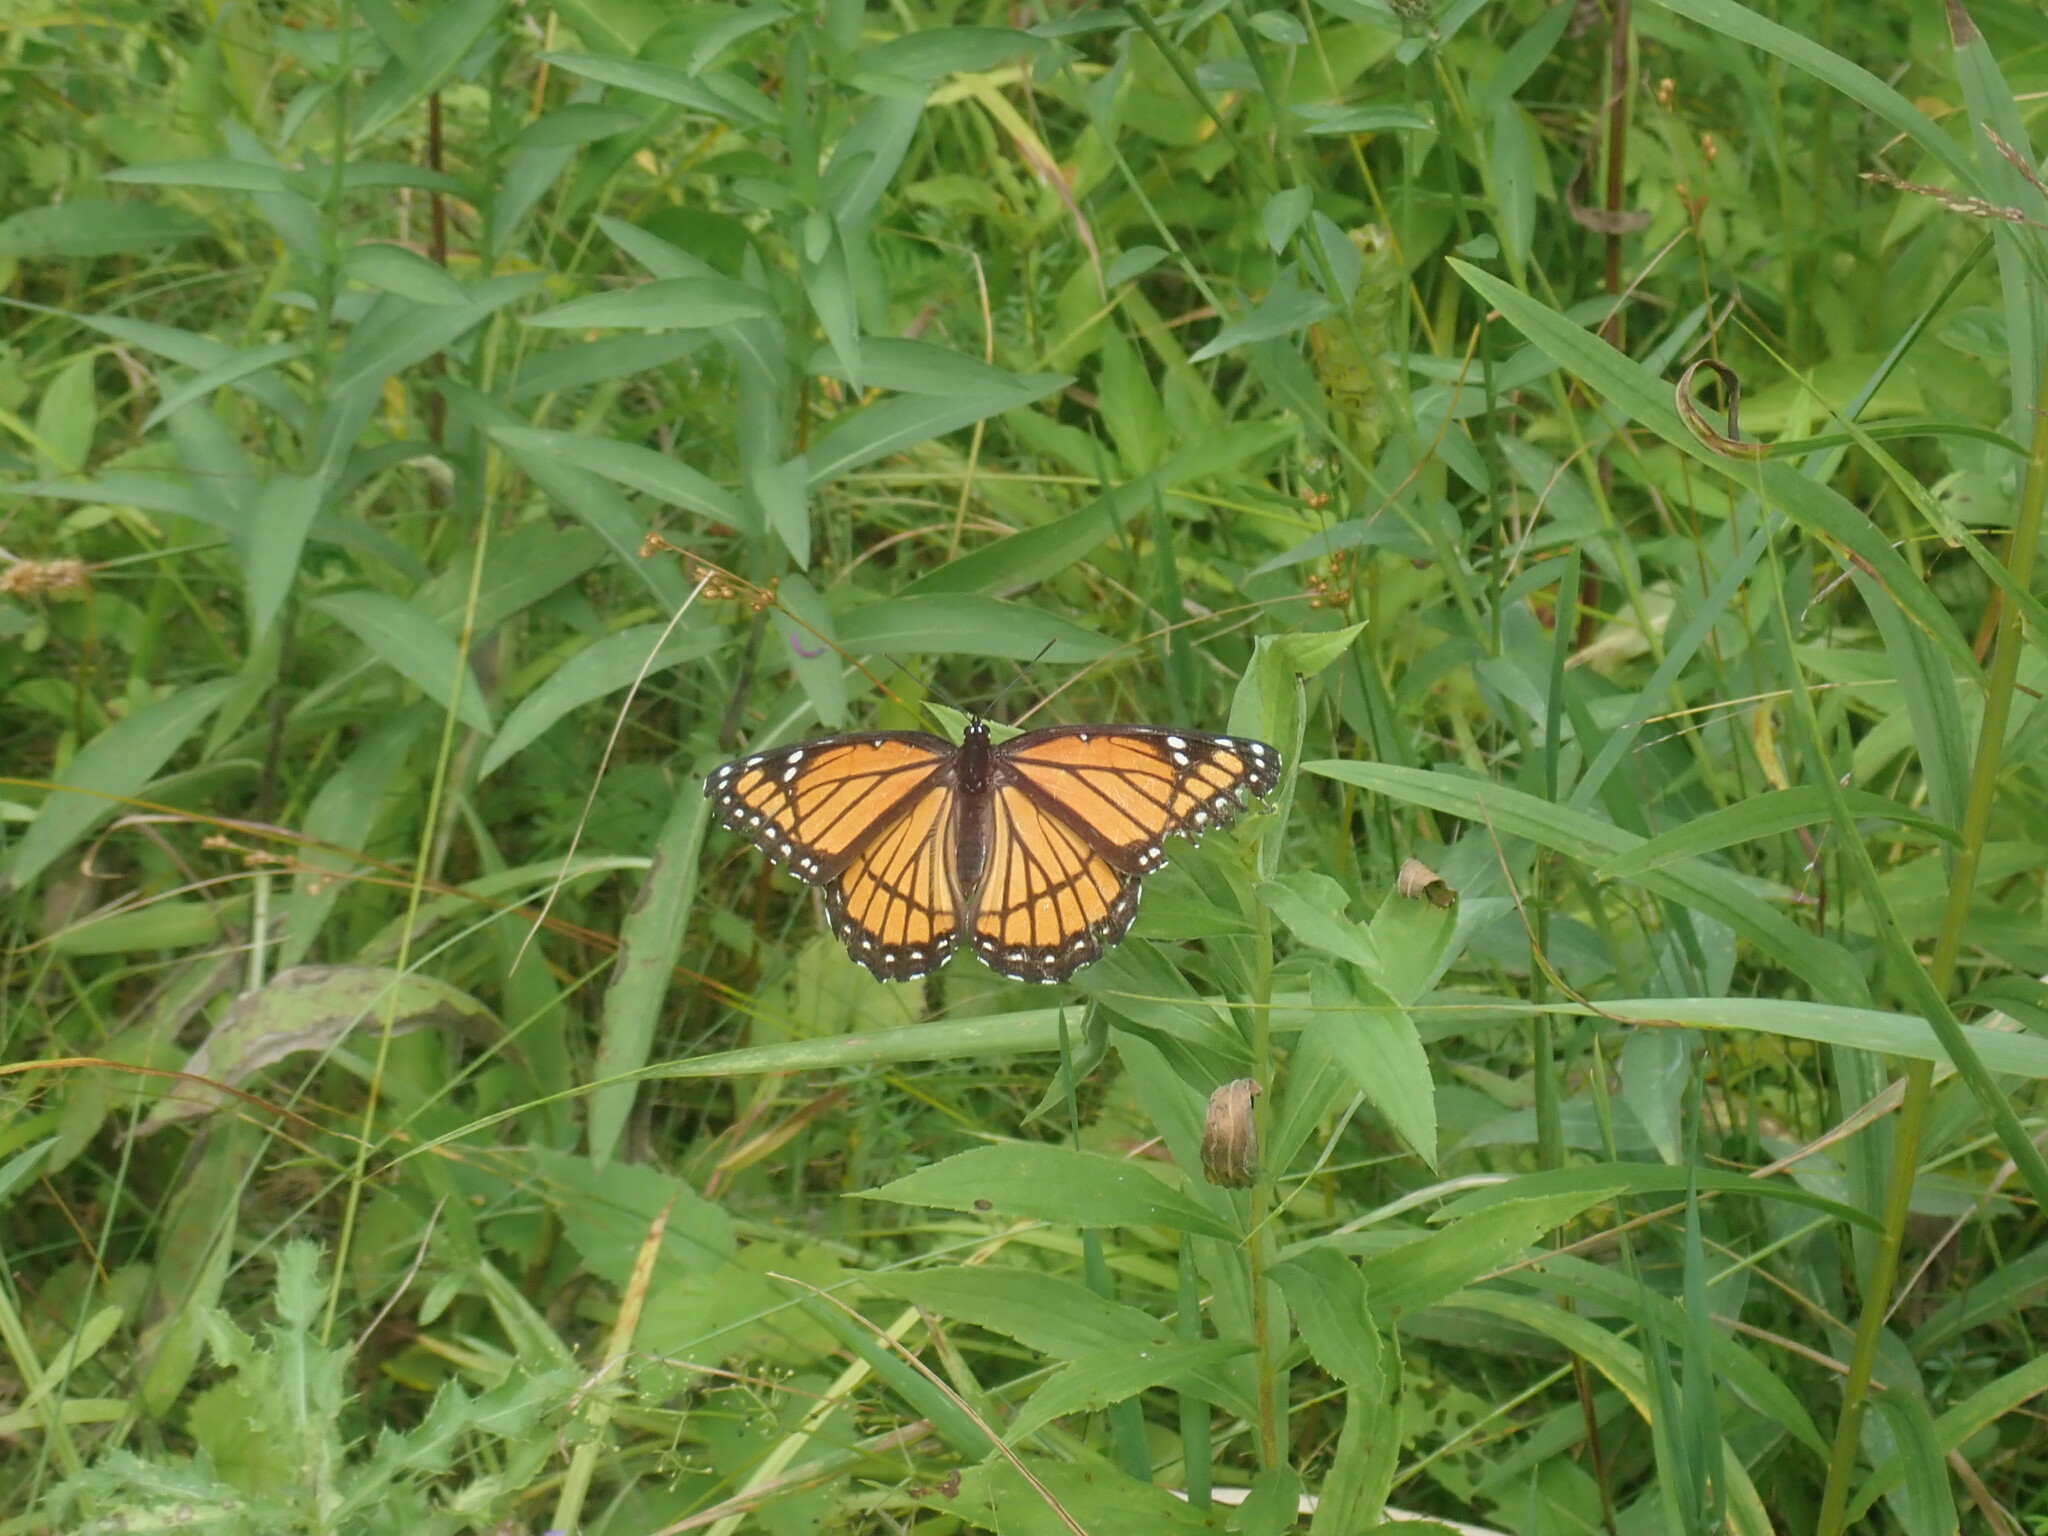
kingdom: Animalia
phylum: Arthropoda
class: Insecta
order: Lepidoptera
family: Nymphalidae
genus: Limenitis
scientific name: Limenitis archippus
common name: Viceroy
